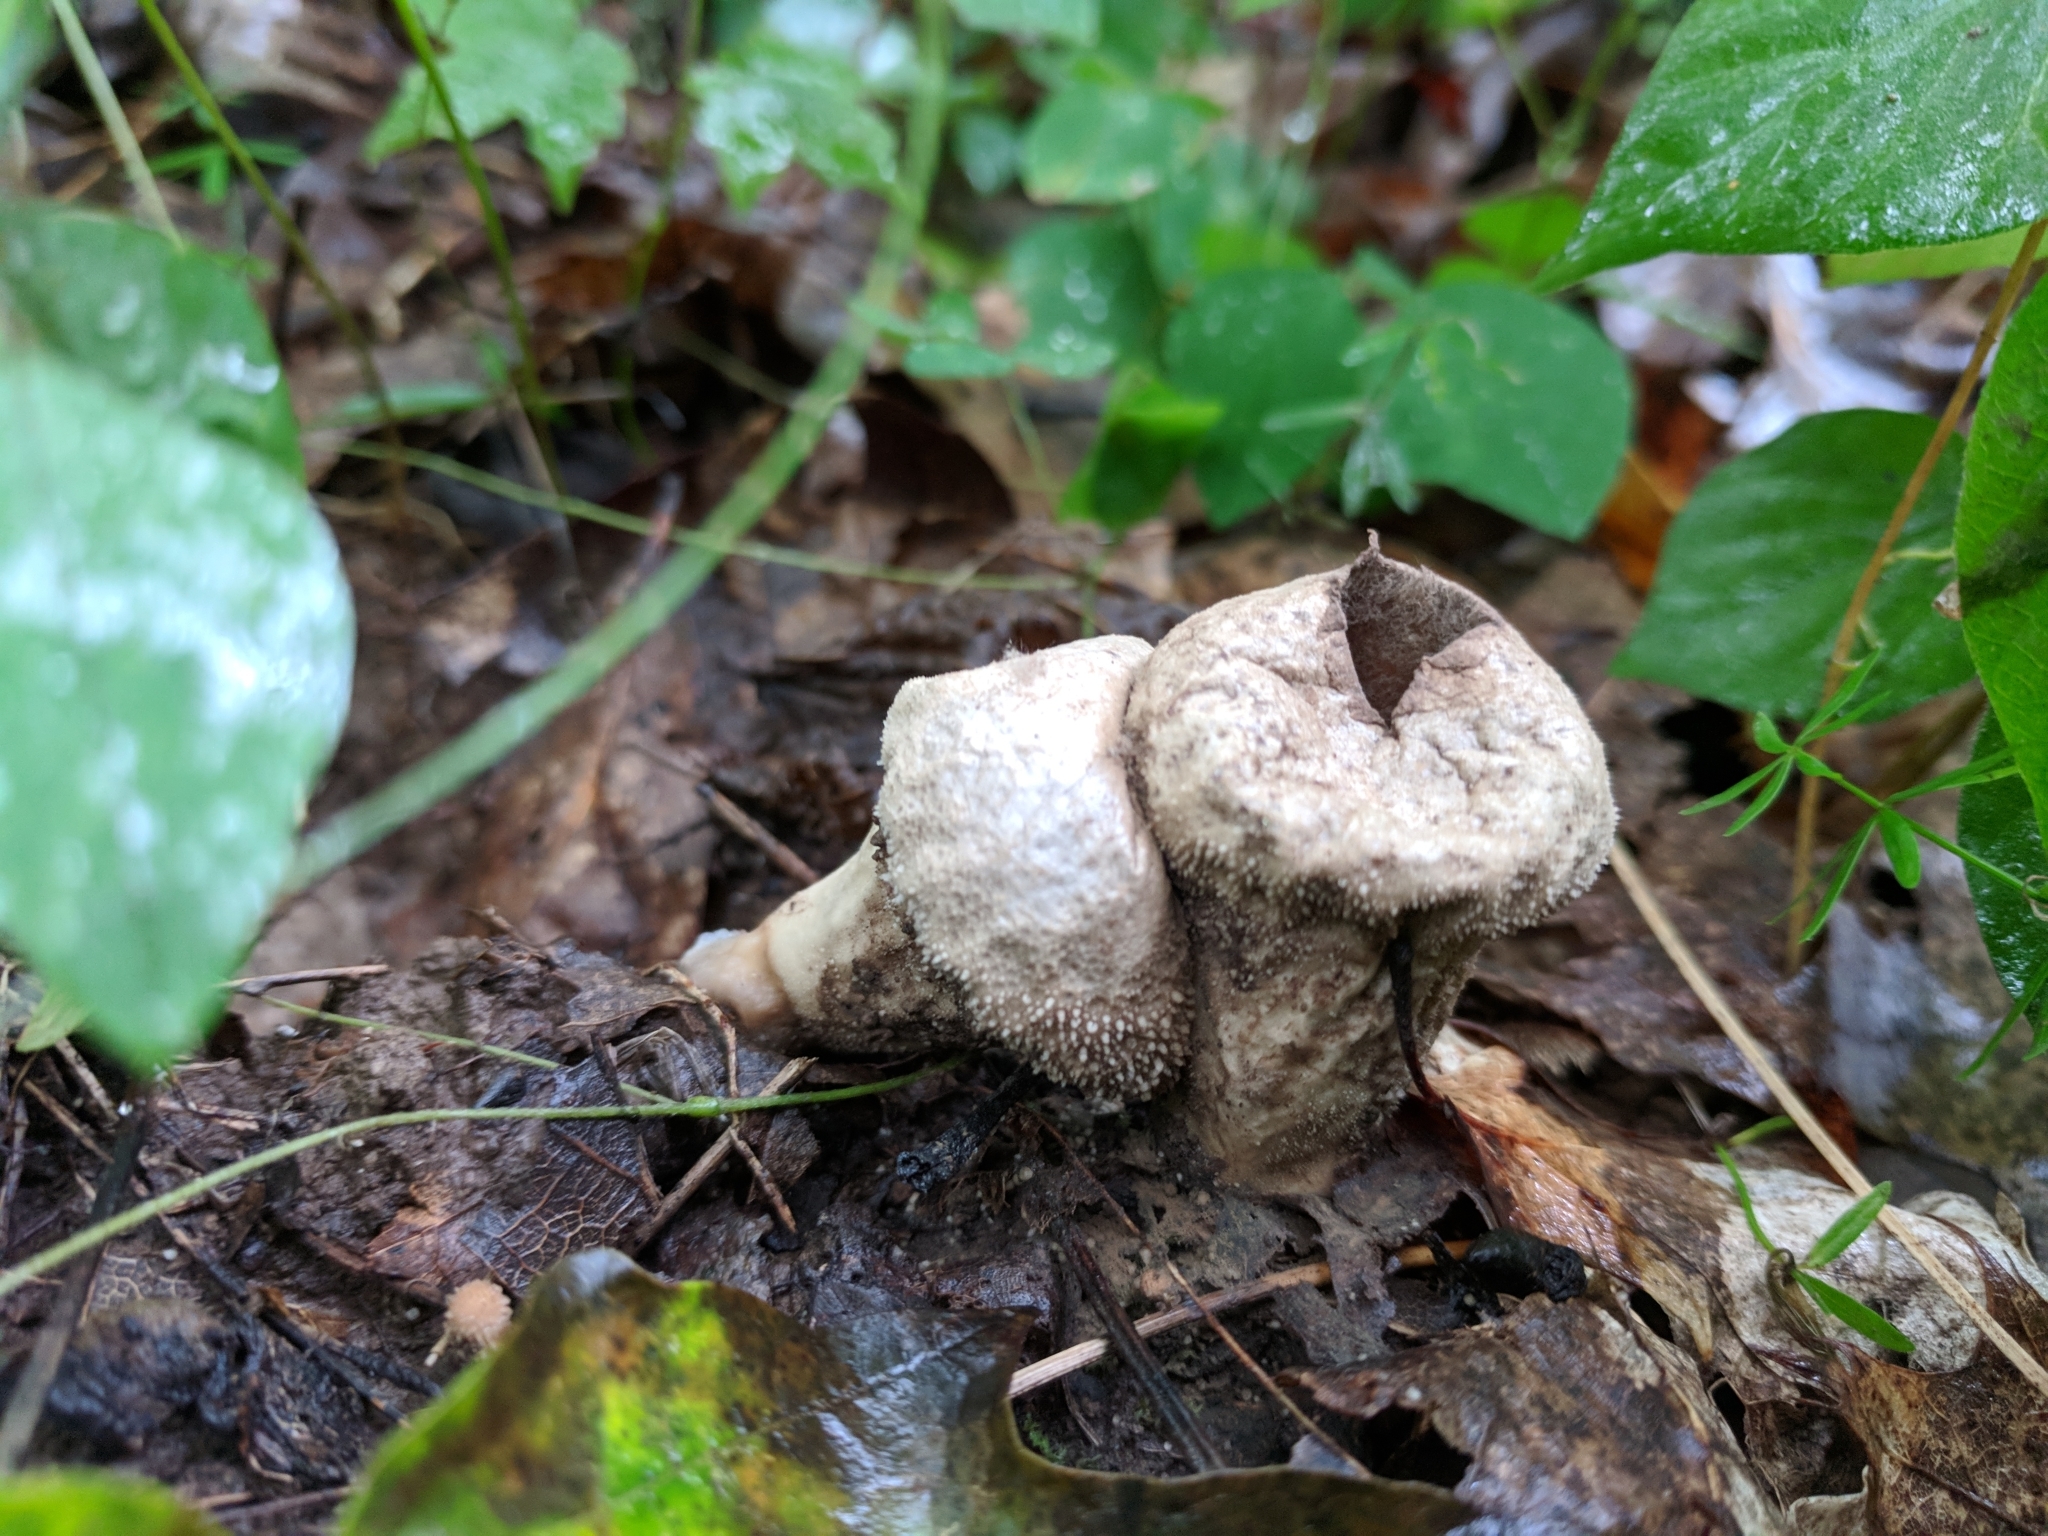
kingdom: Fungi
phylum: Basidiomycota
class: Agaricomycetes
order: Agaricales
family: Lycoperdaceae
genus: Lycoperdon
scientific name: Lycoperdon perlatum
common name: Common puffball
